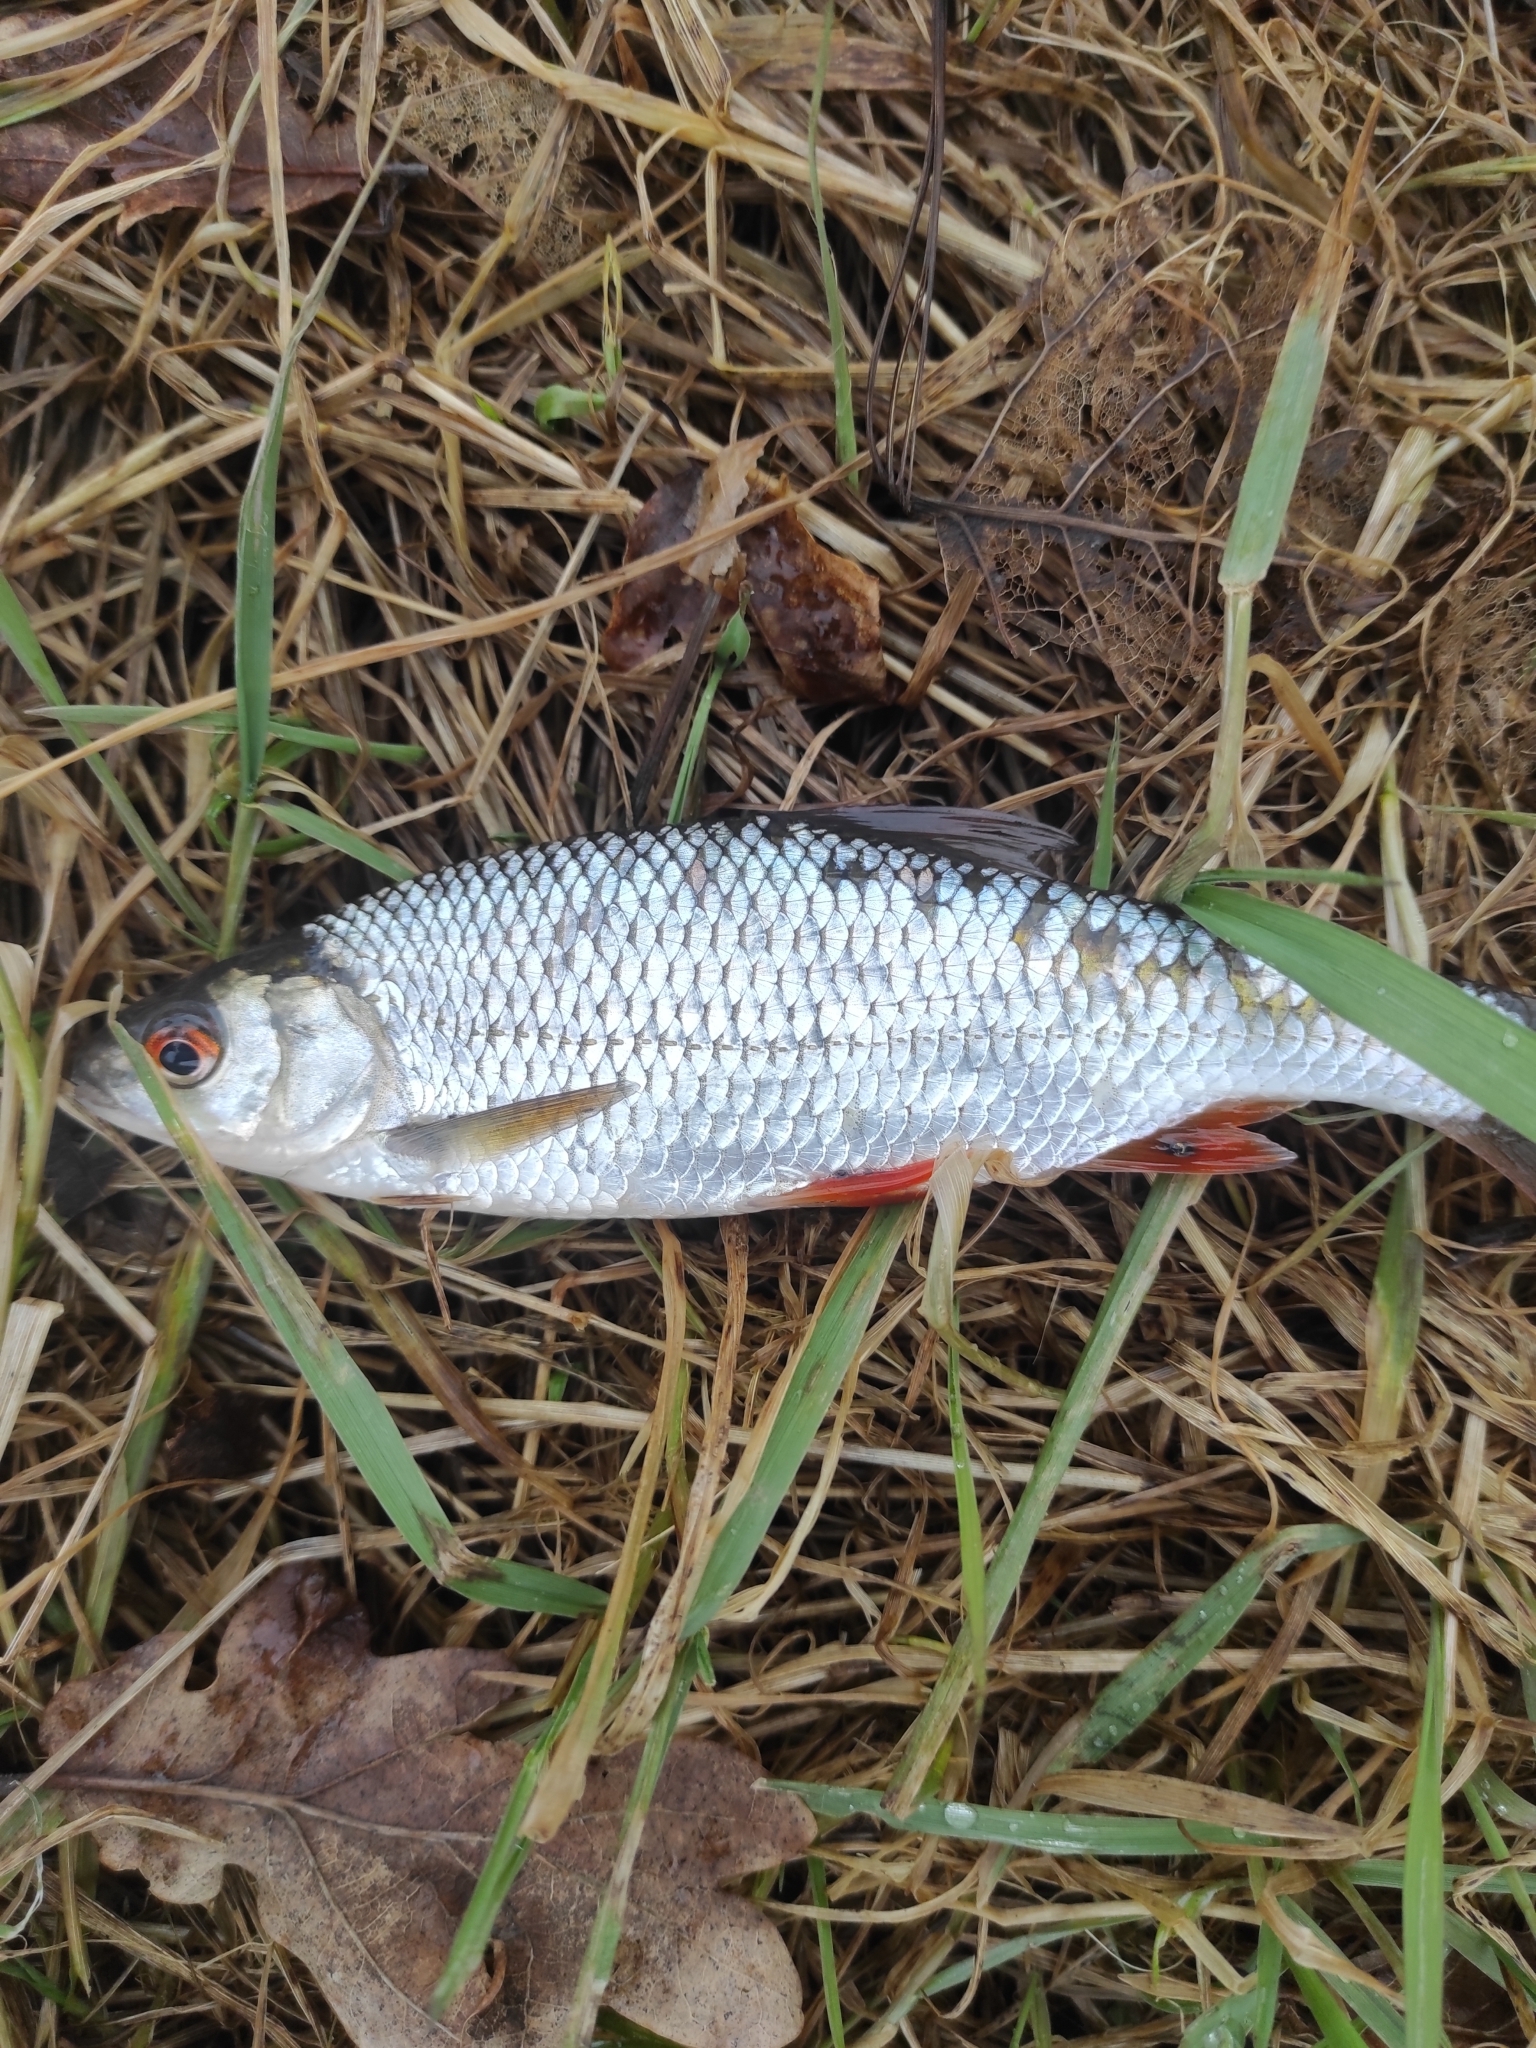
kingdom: Animalia
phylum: Chordata
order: Cypriniformes
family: Cyprinidae
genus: Rutilus
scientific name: Rutilus rutilus
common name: Roach
